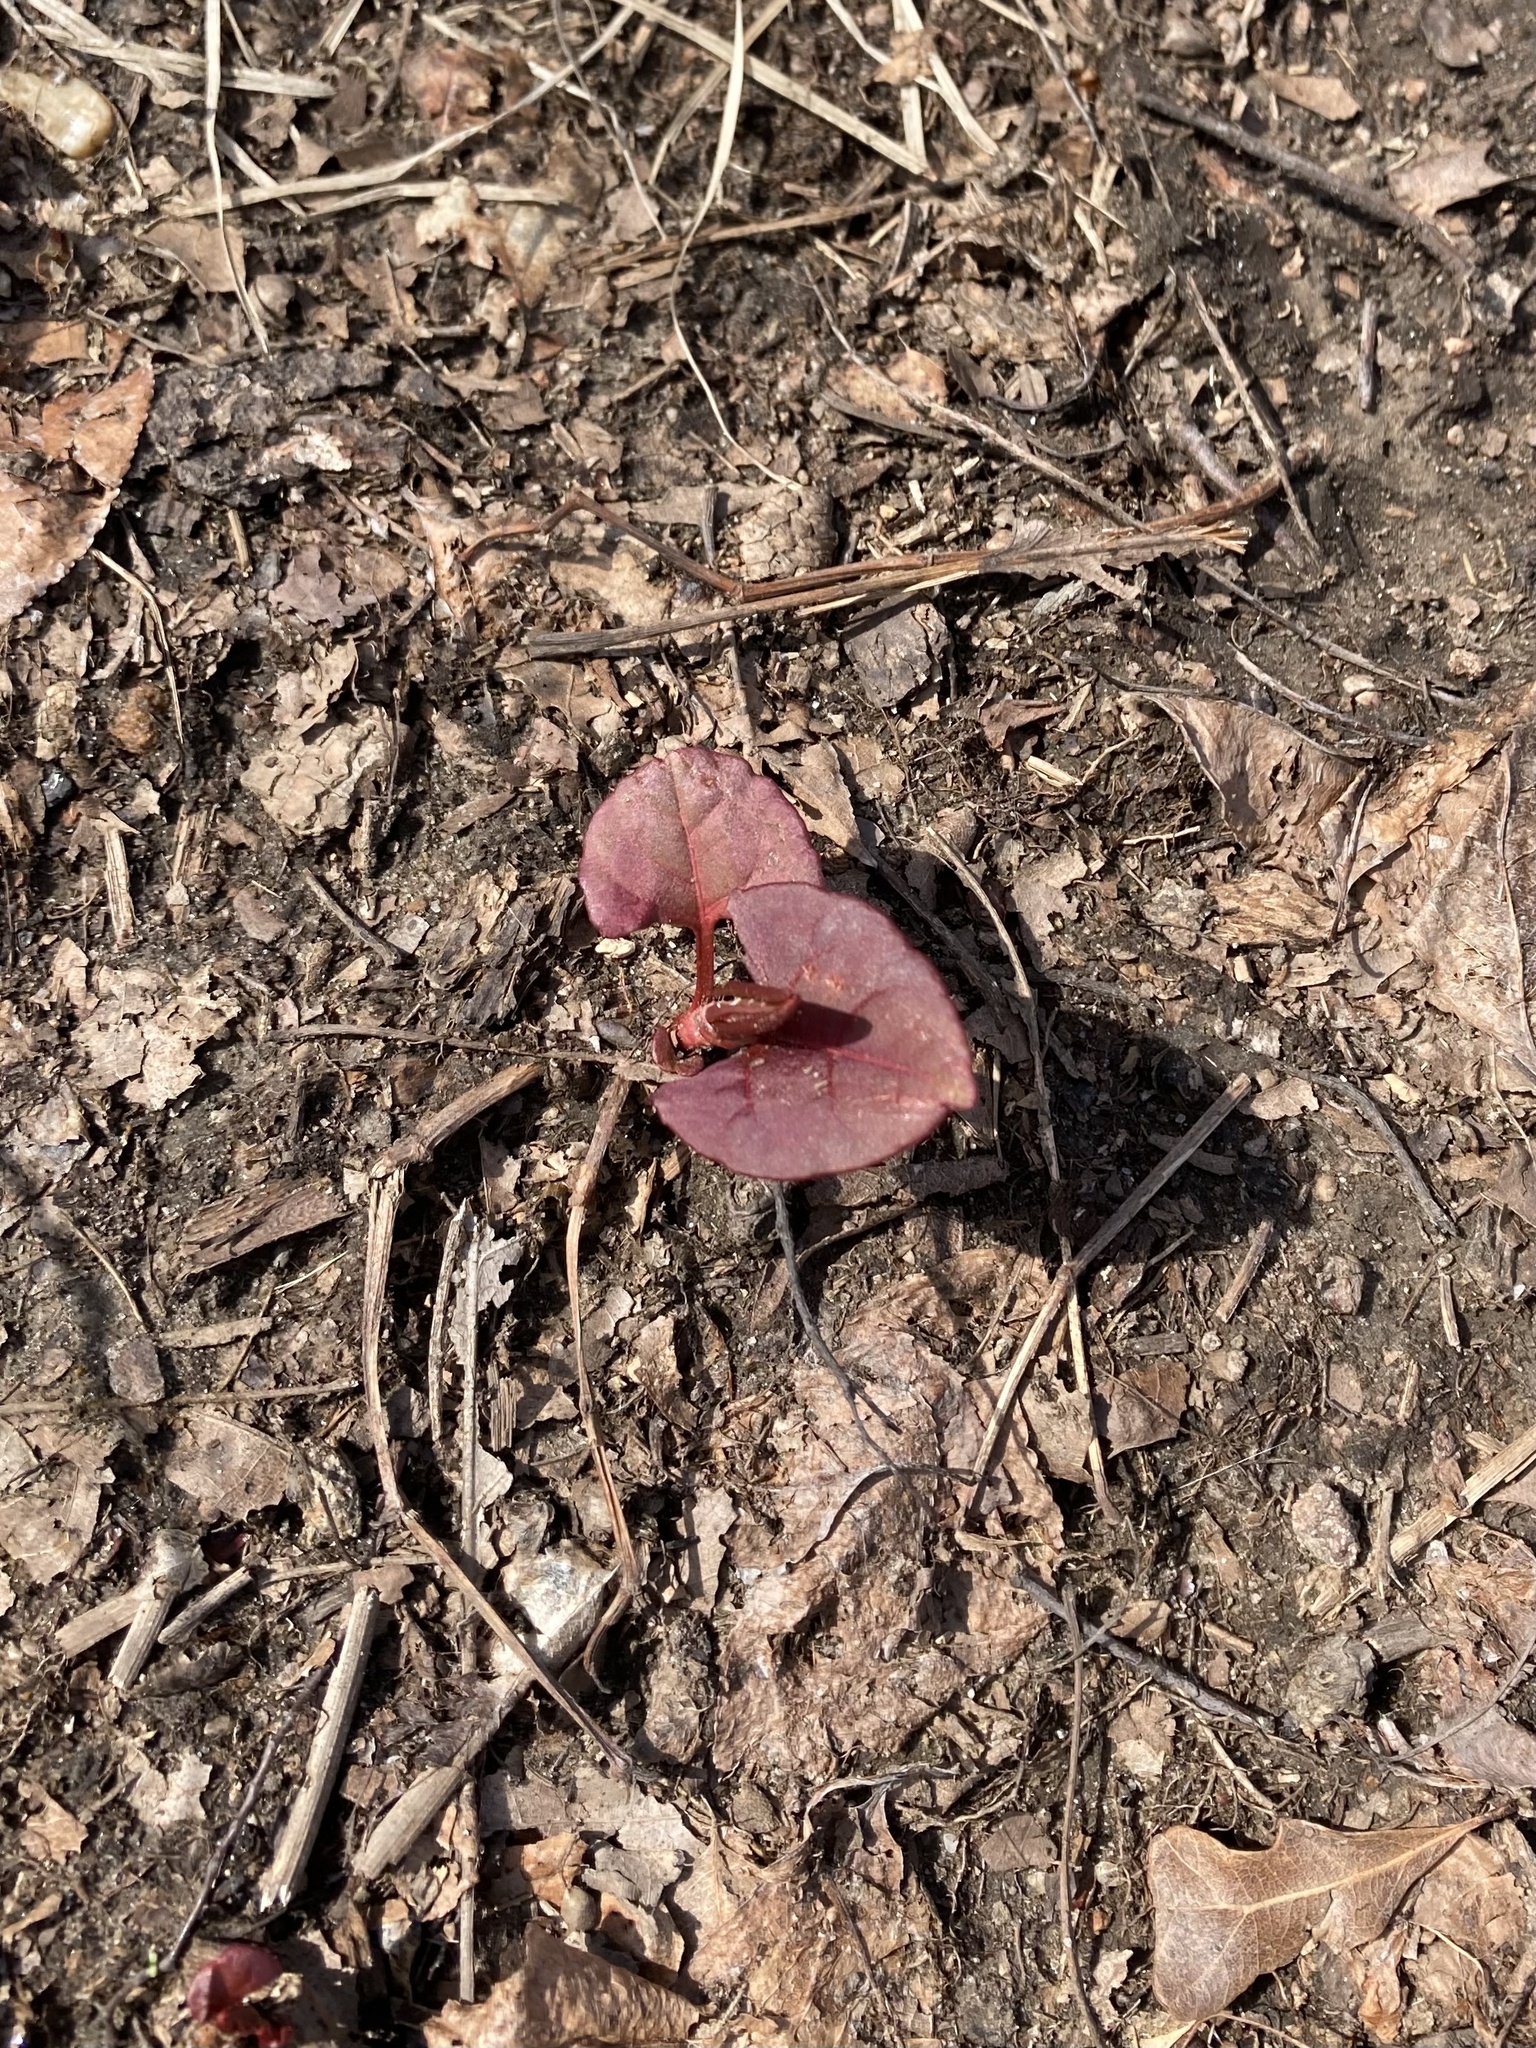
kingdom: Plantae
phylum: Tracheophyta
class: Magnoliopsida
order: Caryophyllales
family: Polygonaceae
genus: Reynoutria
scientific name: Reynoutria japonica
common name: Japanese knotweed
